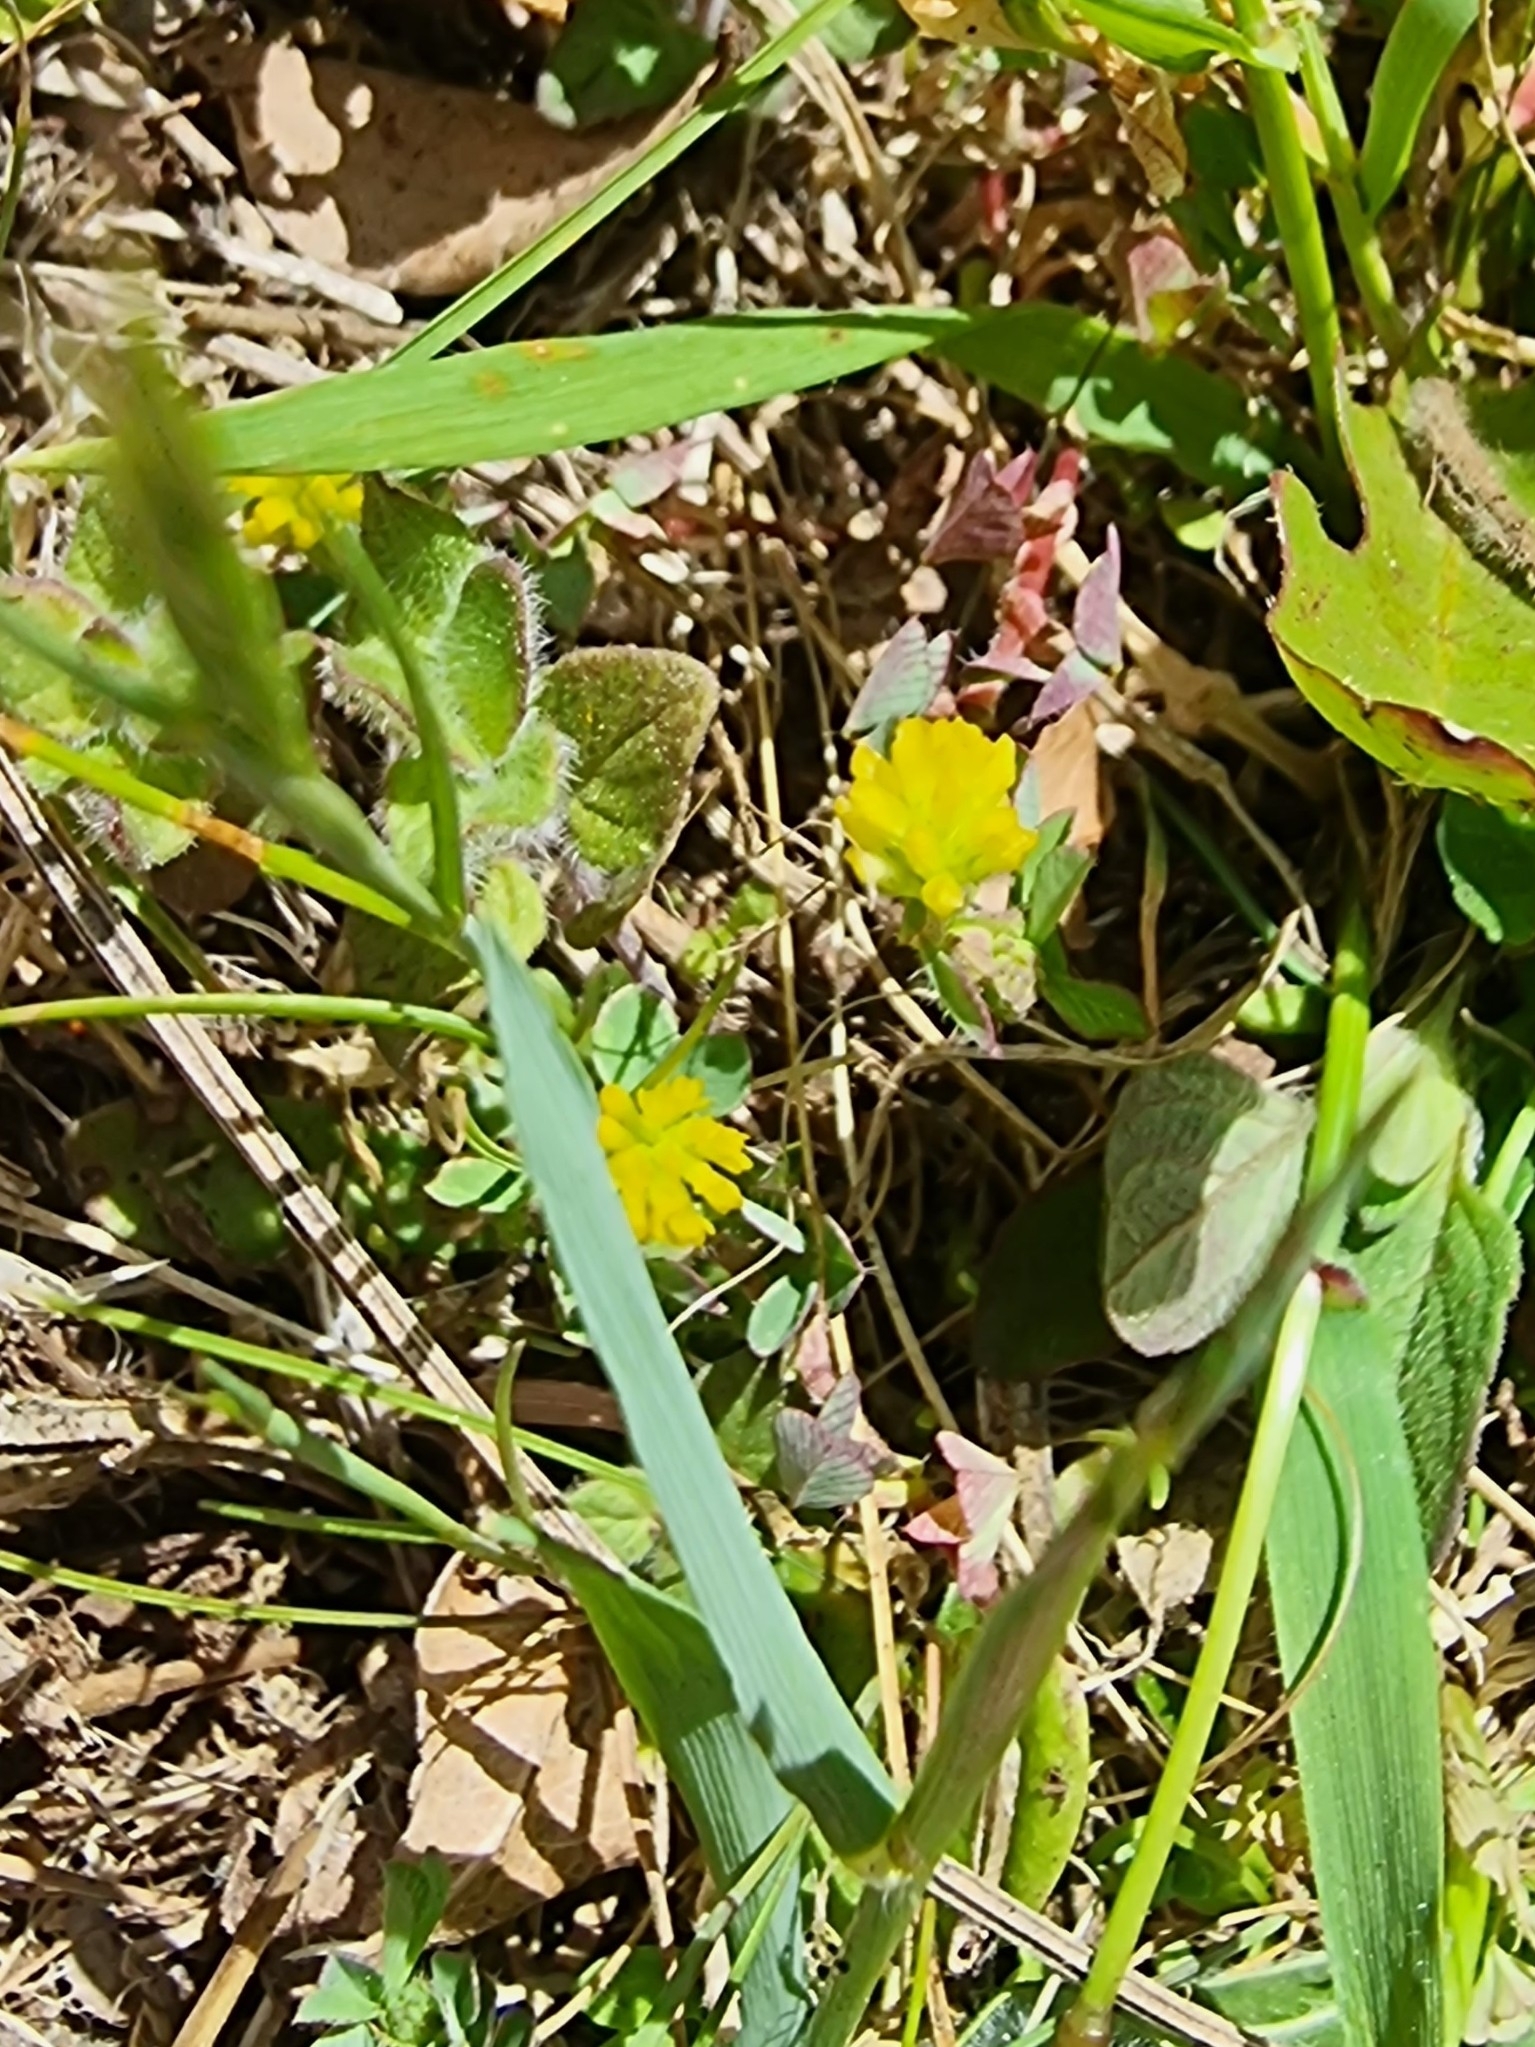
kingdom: Plantae
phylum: Tracheophyta
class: Magnoliopsida
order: Fabales
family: Fabaceae
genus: Trifolium
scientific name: Trifolium dubium
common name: Suckling clover
